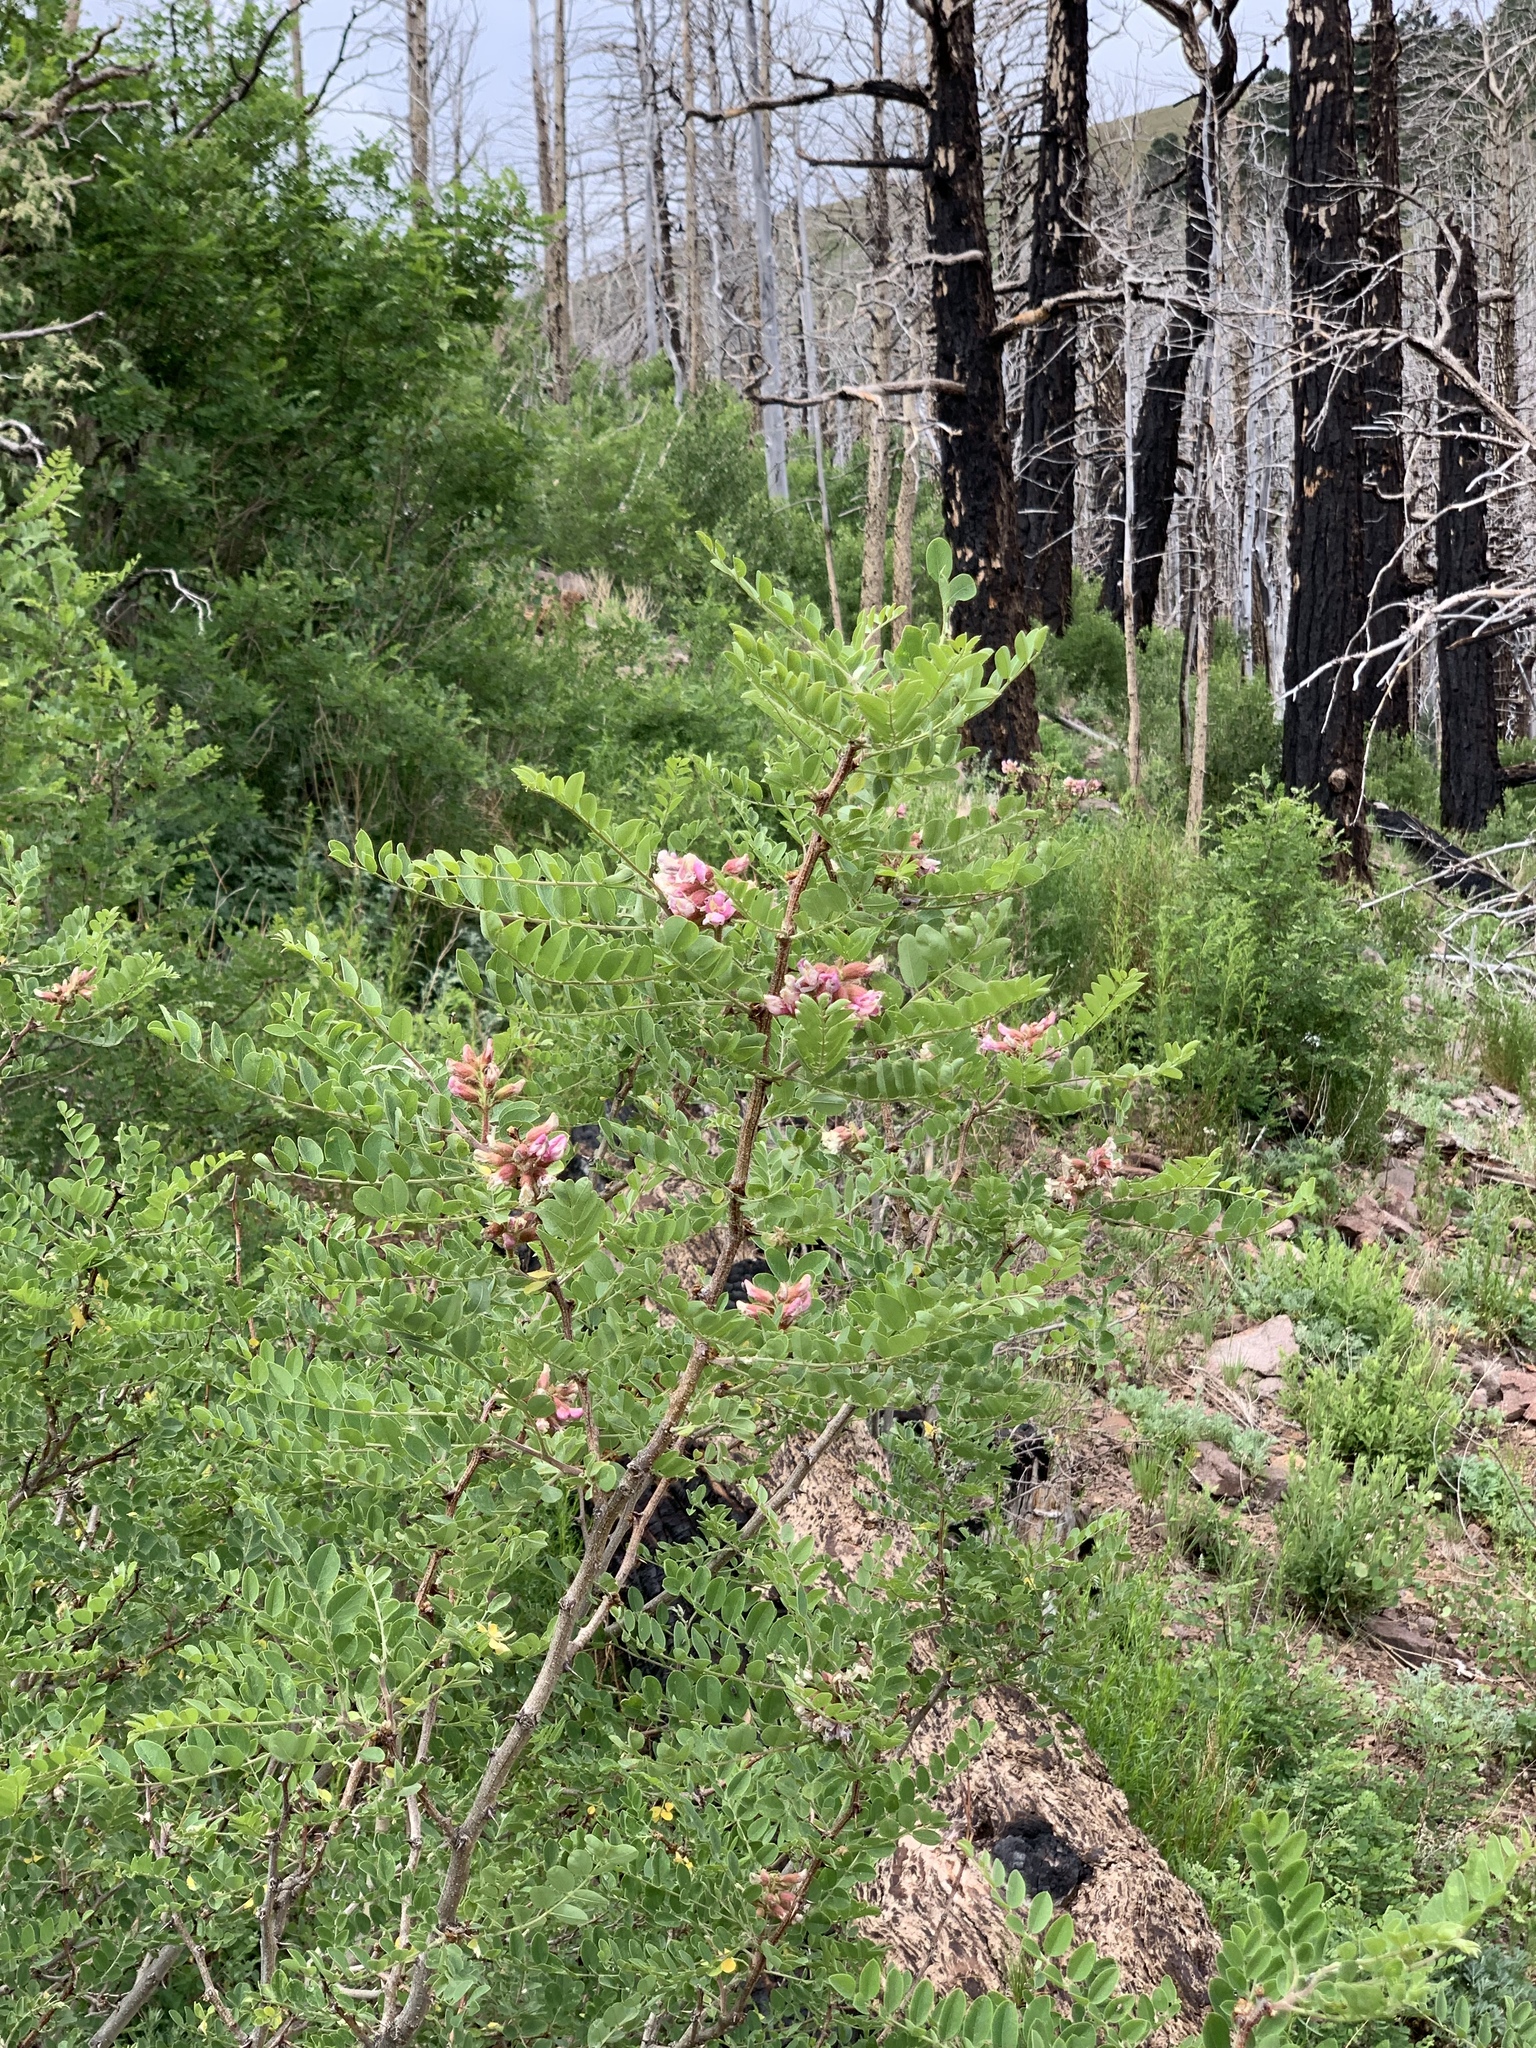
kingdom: Plantae
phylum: Tracheophyta
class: Magnoliopsida
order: Fabales
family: Fabaceae
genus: Robinia
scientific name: Robinia neomexicana
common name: New mexico locust
